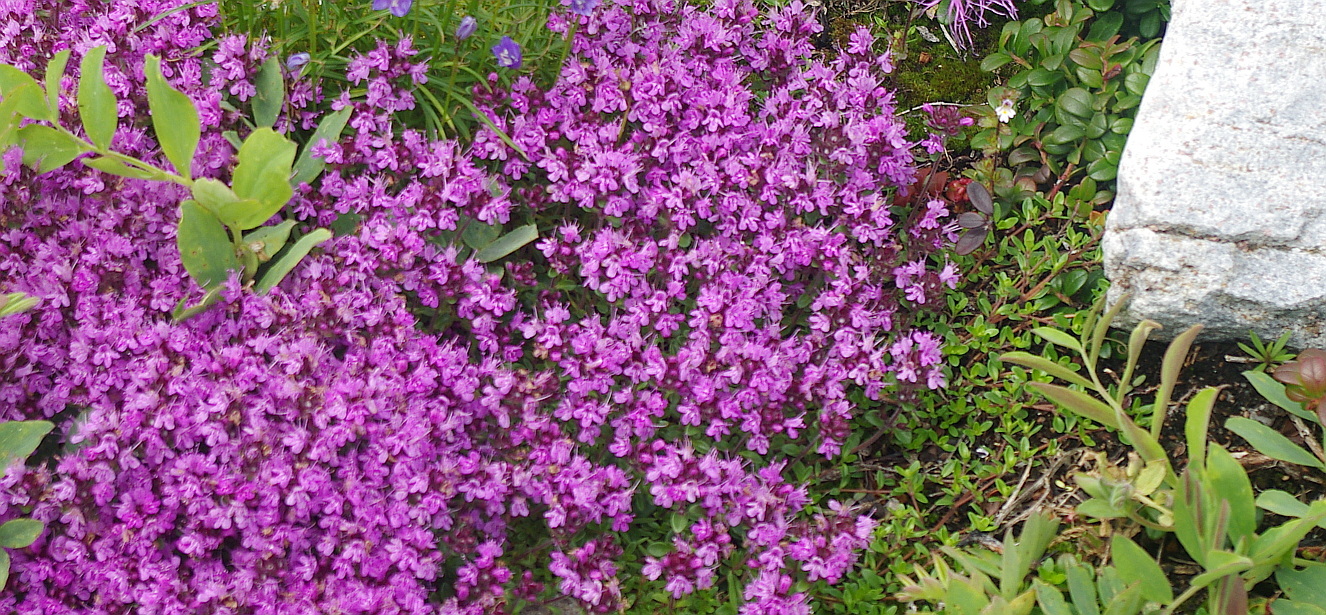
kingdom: Plantae
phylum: Tracheophyta
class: Magnoliopsida
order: Lamiales
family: Lamiaceae
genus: Thymus
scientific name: Thymus serpyllum
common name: Breckland thyme
